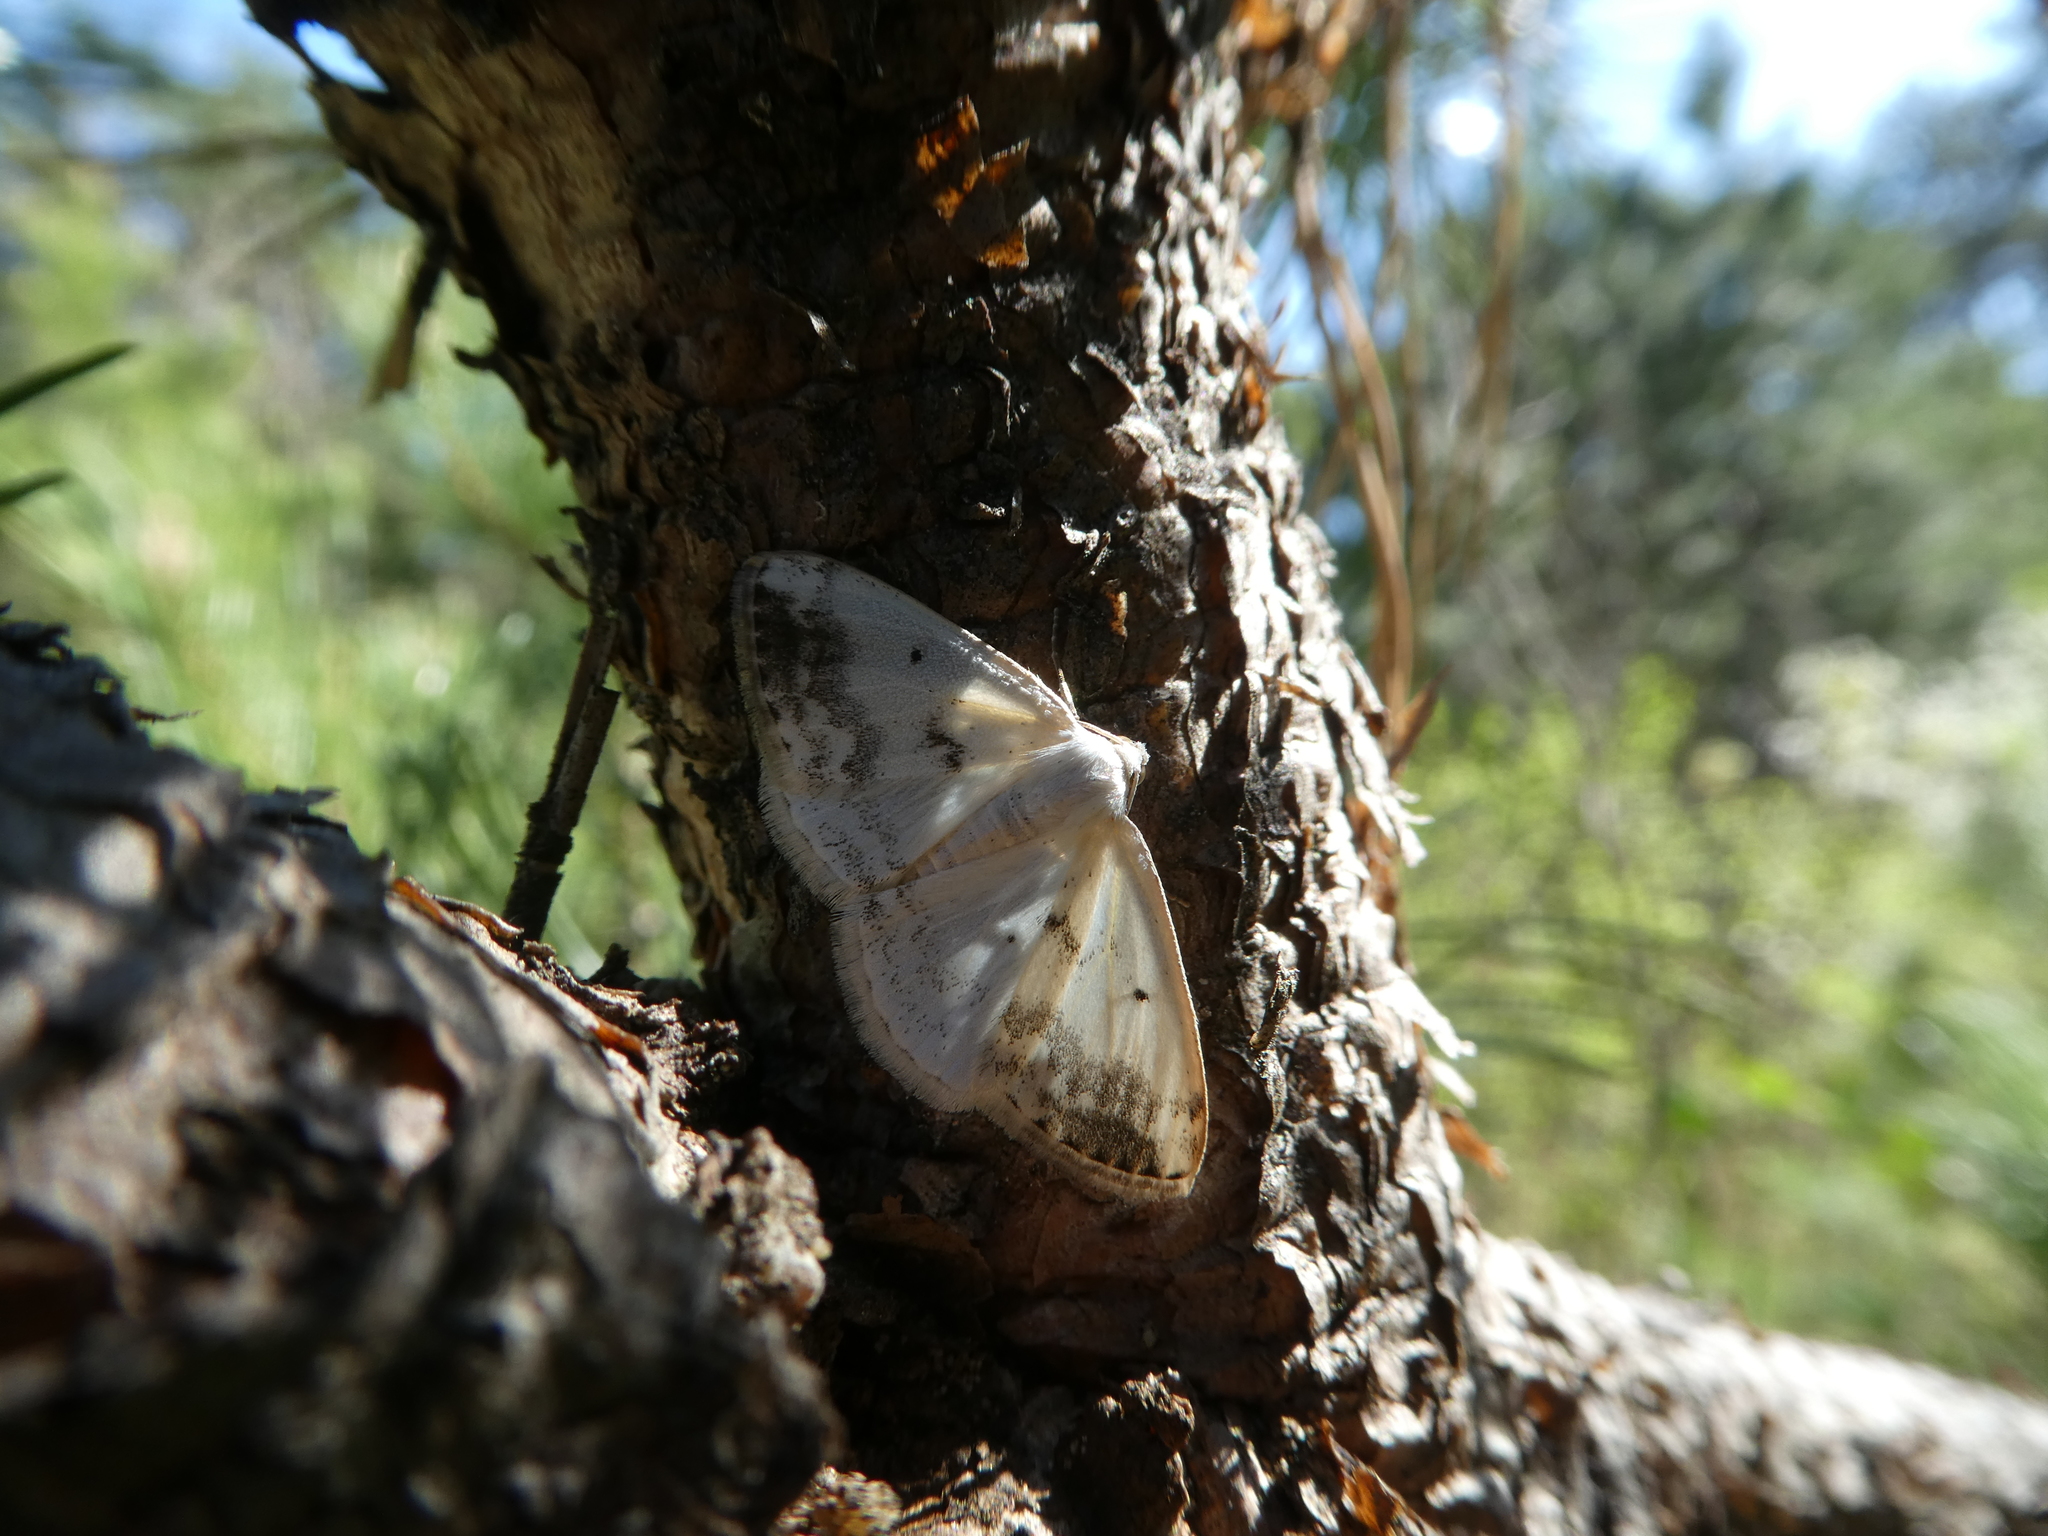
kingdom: Animalia
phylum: Arthropoda
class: Insecta
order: Lepidoptera
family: Geometridae
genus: Lomographa
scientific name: Lomographa temerata
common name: Clouded silver
